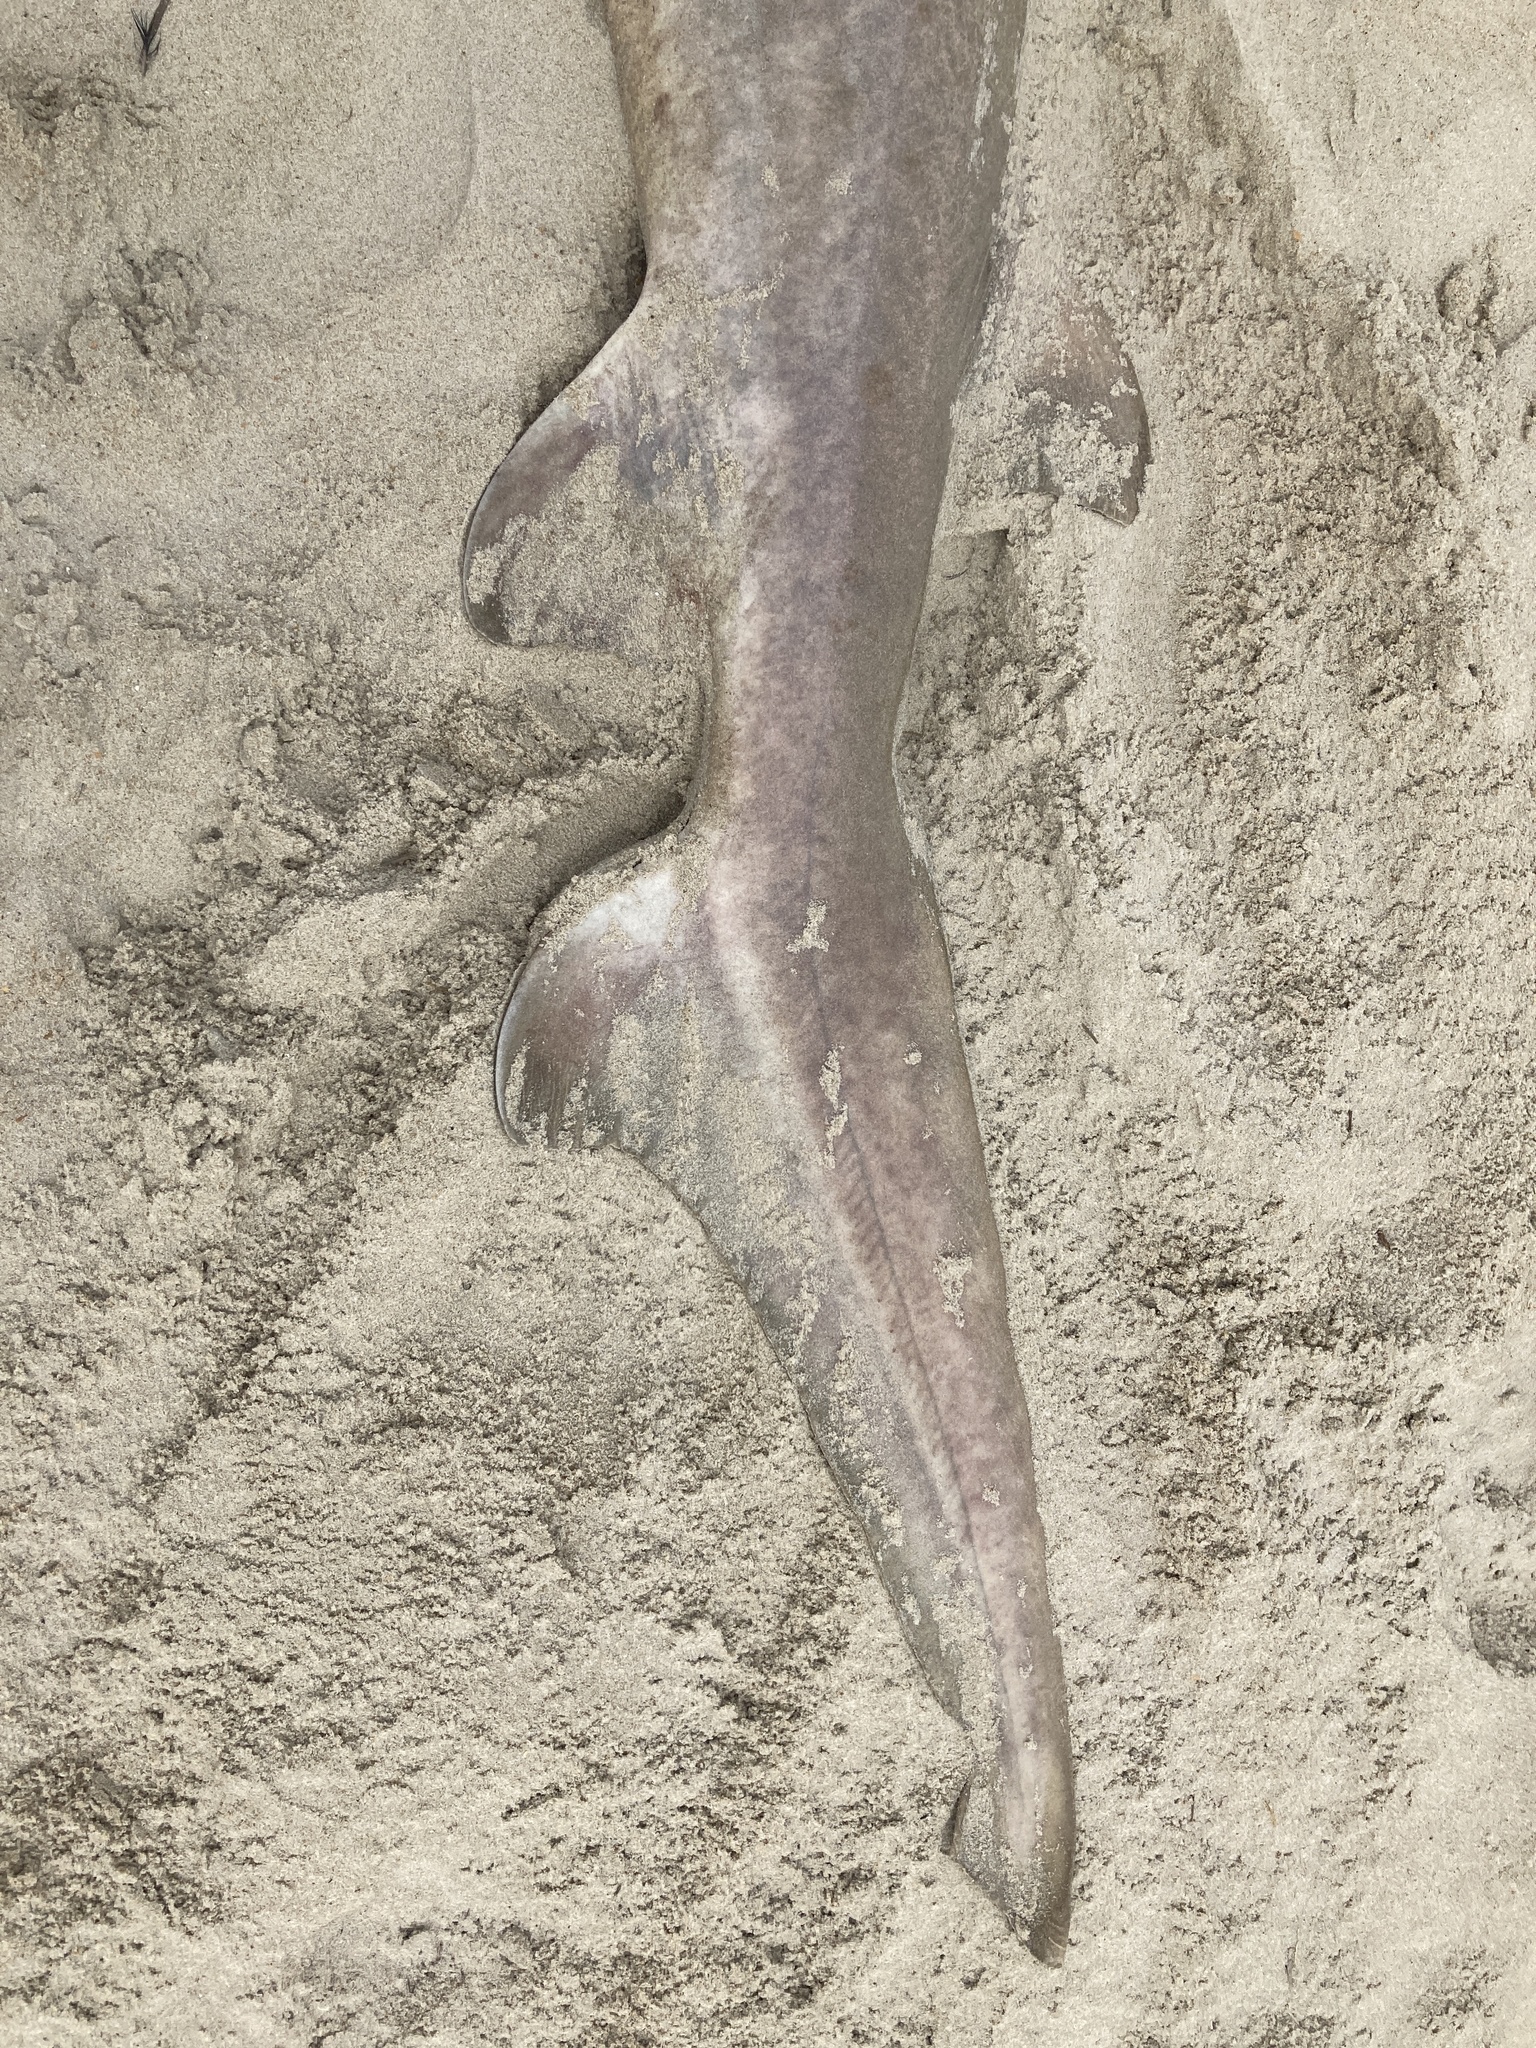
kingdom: Animalia
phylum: Chordata
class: Elasmobranchii
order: Lamniformes
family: Odontaspididae
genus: Carcharias
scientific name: Carcharias taurus
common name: Sand shark
